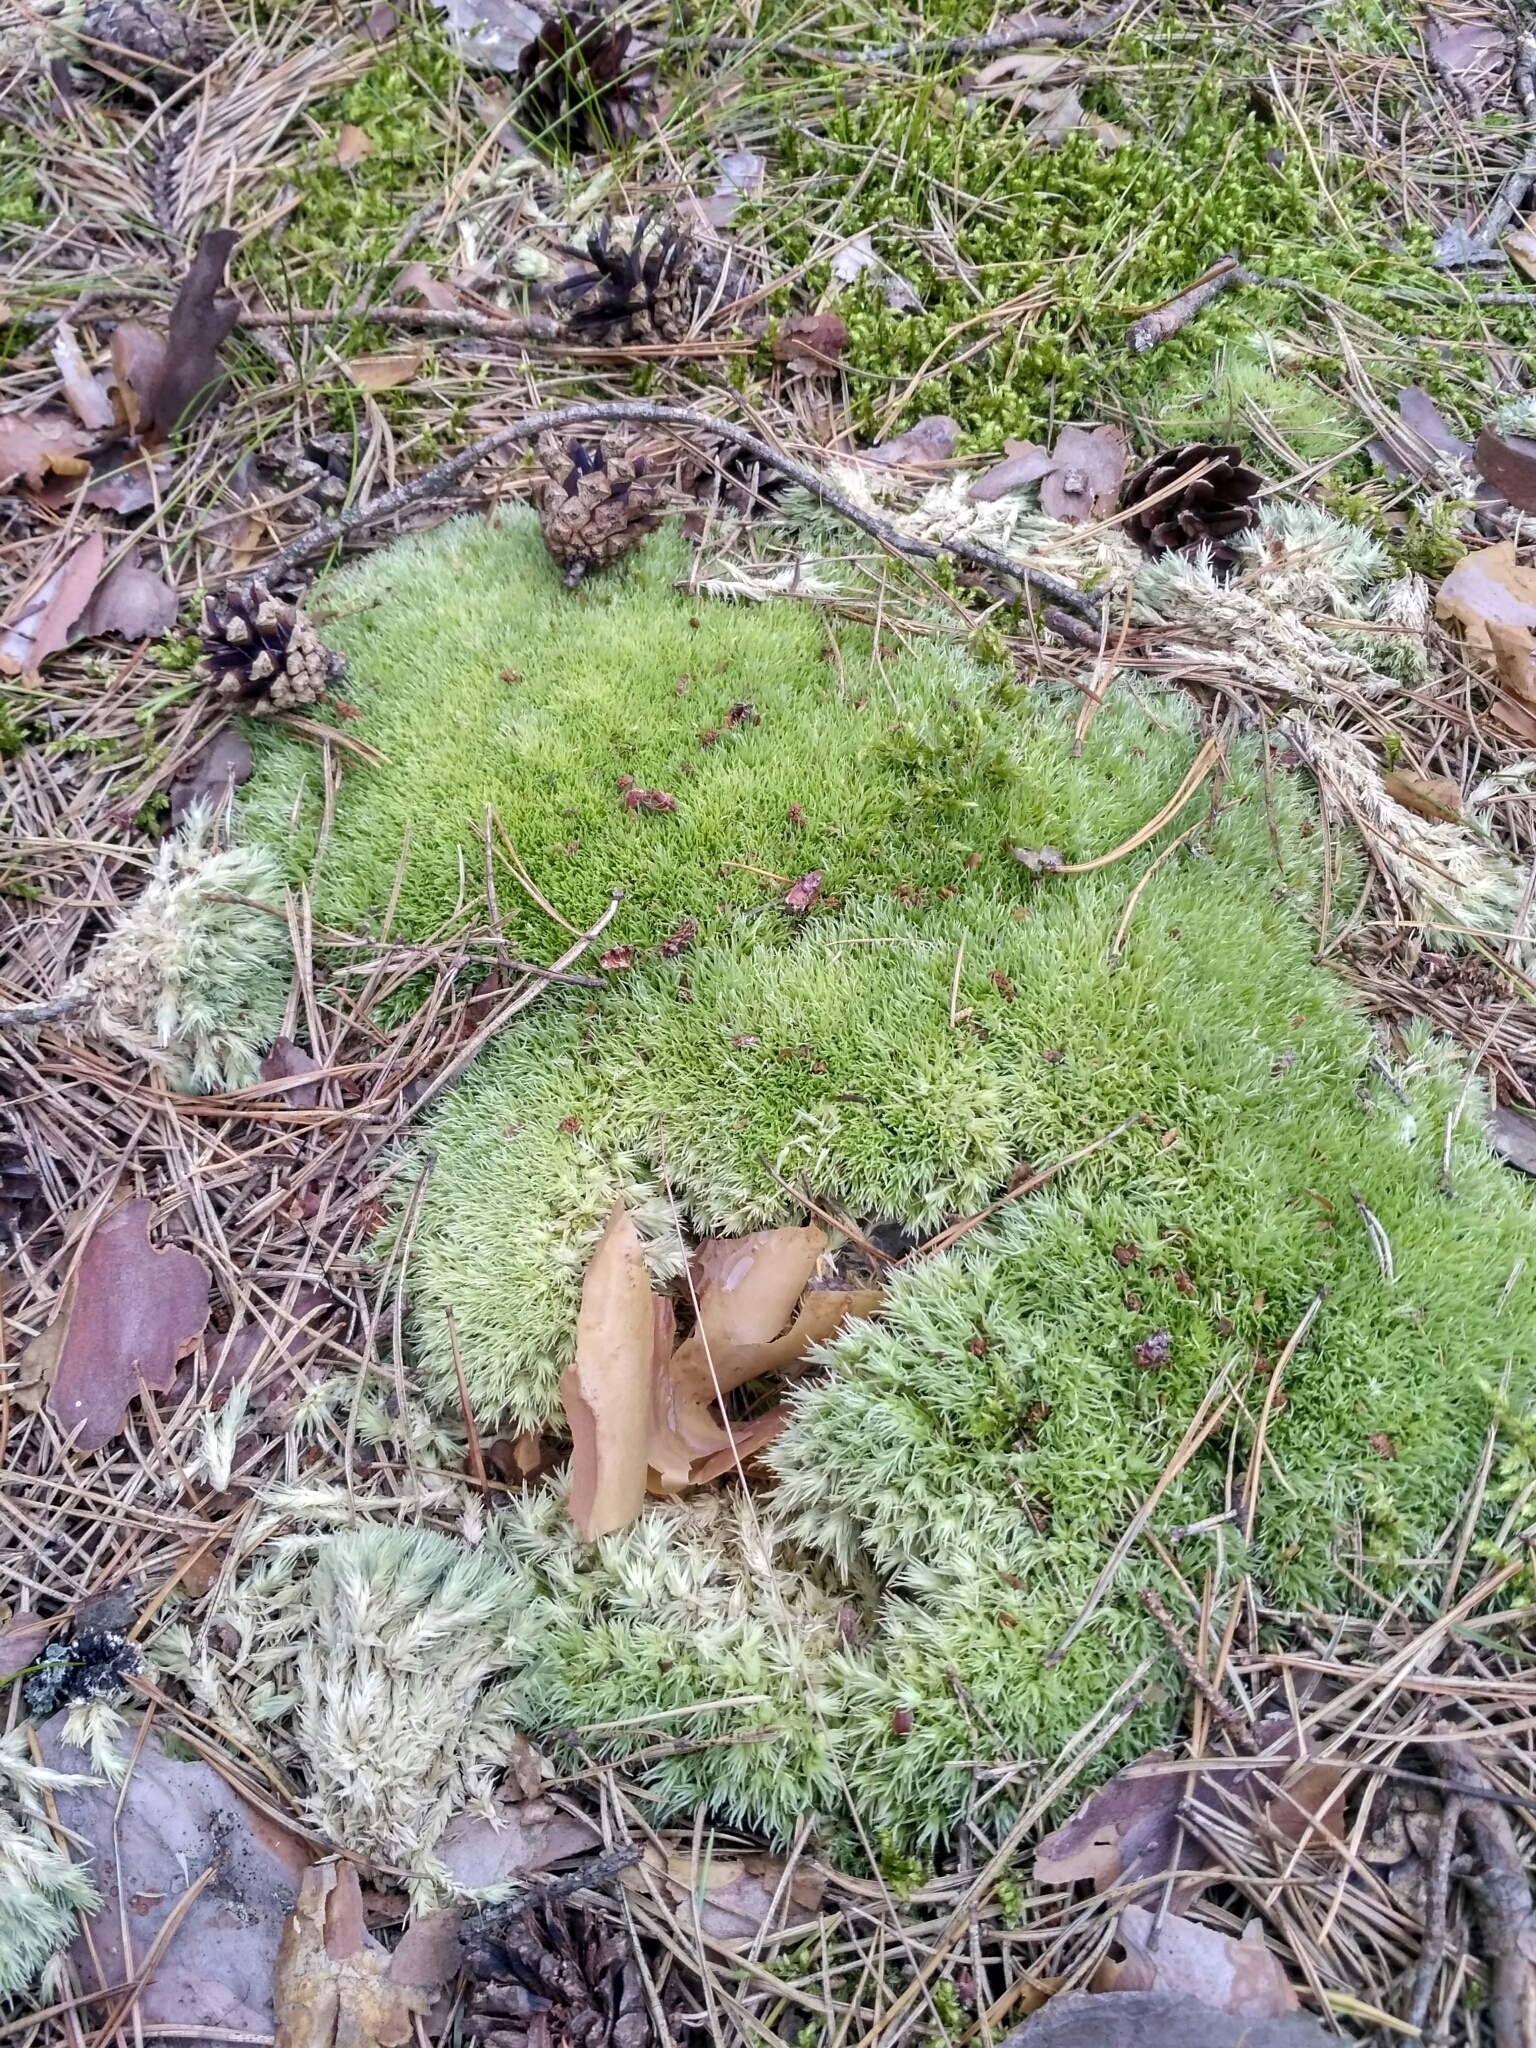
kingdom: Plantae
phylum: Bryophyta
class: Bryopsida
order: Dicranales
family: Leucobryaceae
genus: Leucobryum
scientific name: Leucobryum glaucum
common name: Large white-moss
